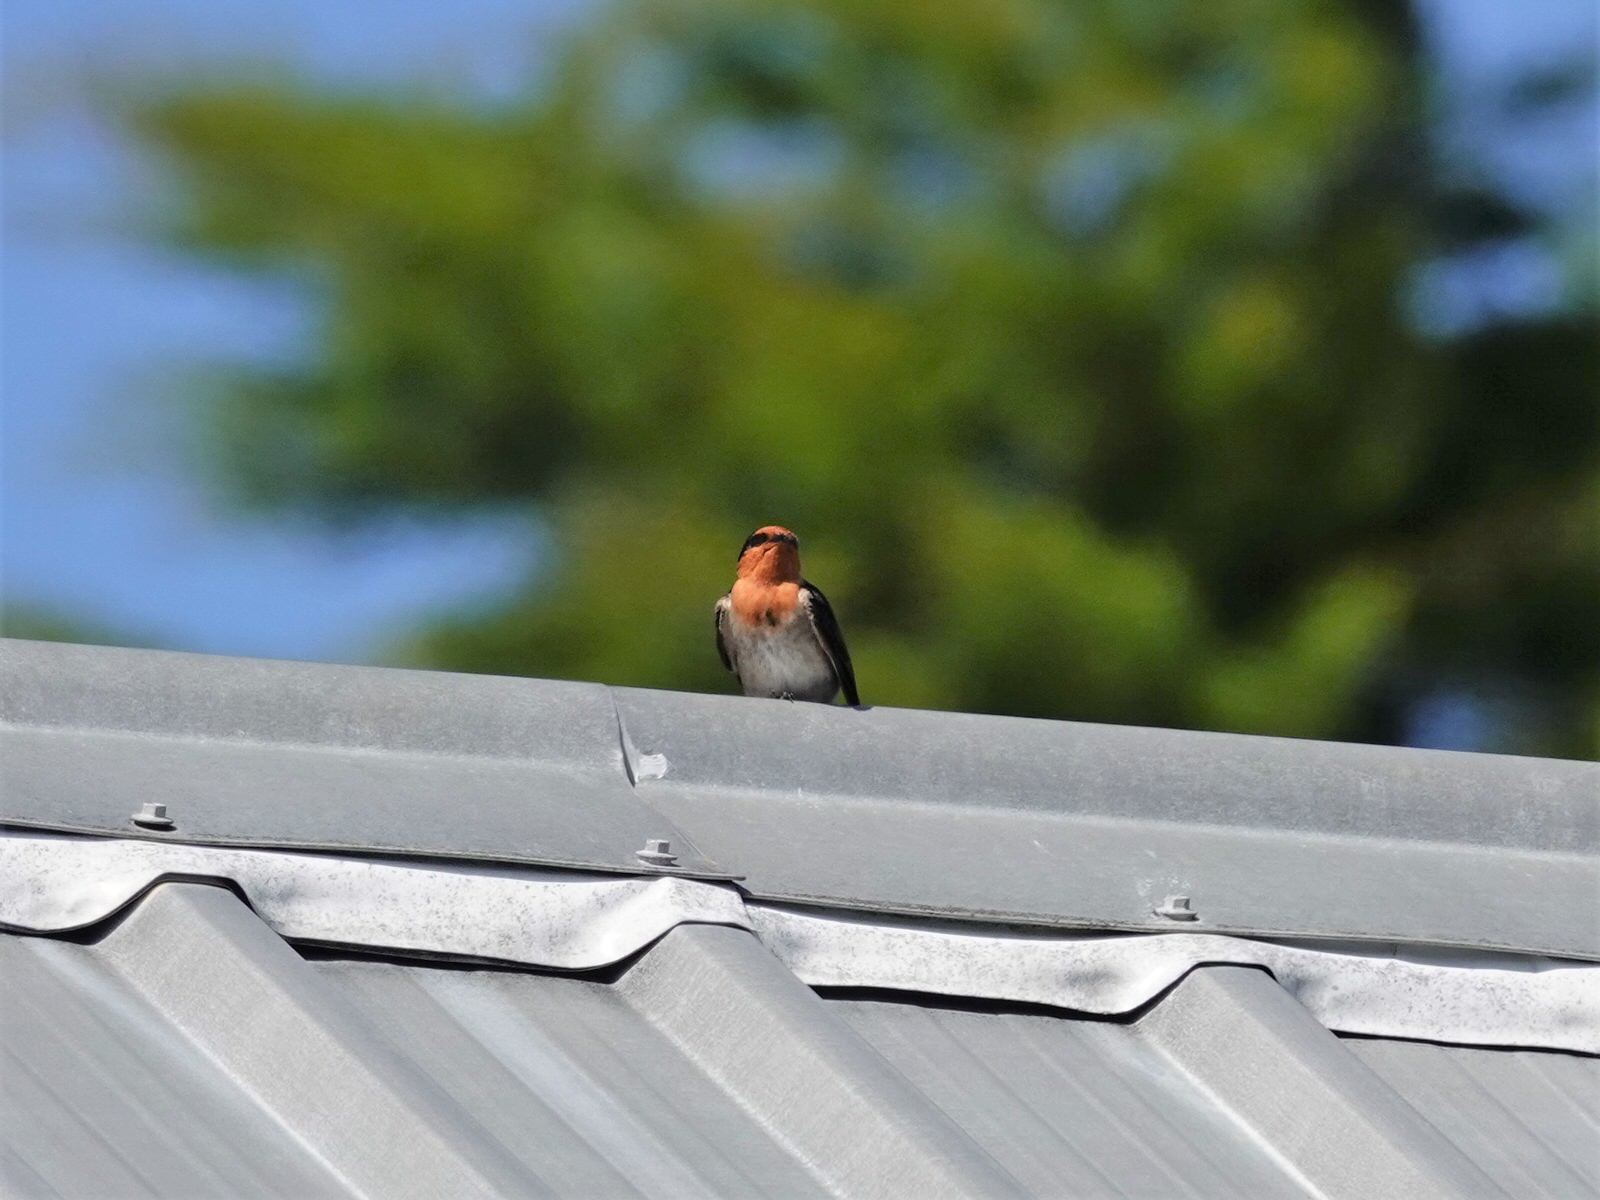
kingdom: Animalia
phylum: Chordata
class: Aves
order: Passeriformes
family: Hirundinidae
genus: Hirundo
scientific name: Hirundo neoxena
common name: Welcome swallow
